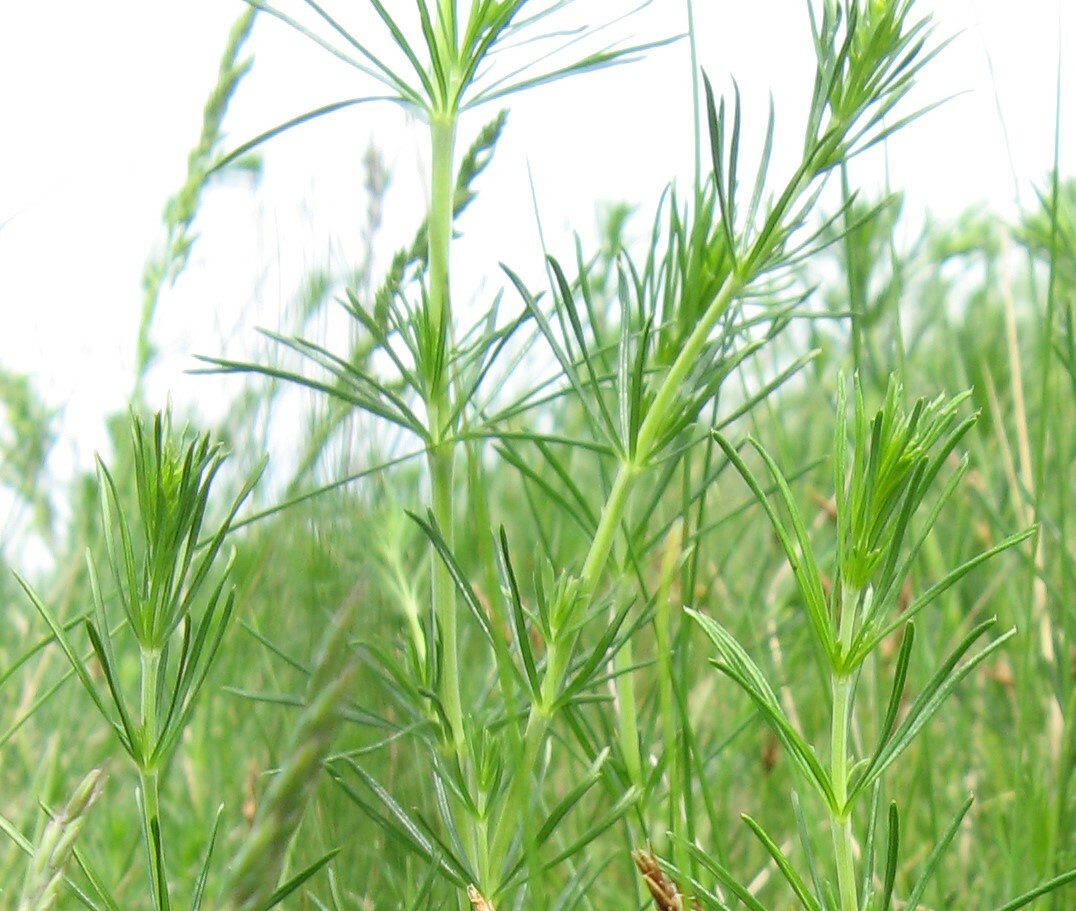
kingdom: Plantae
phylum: Tracheophyta
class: Magnoliopsida
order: Gentianales
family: Rubiaceae
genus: Galium
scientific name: Galium verum
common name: Lady's bedstraw
